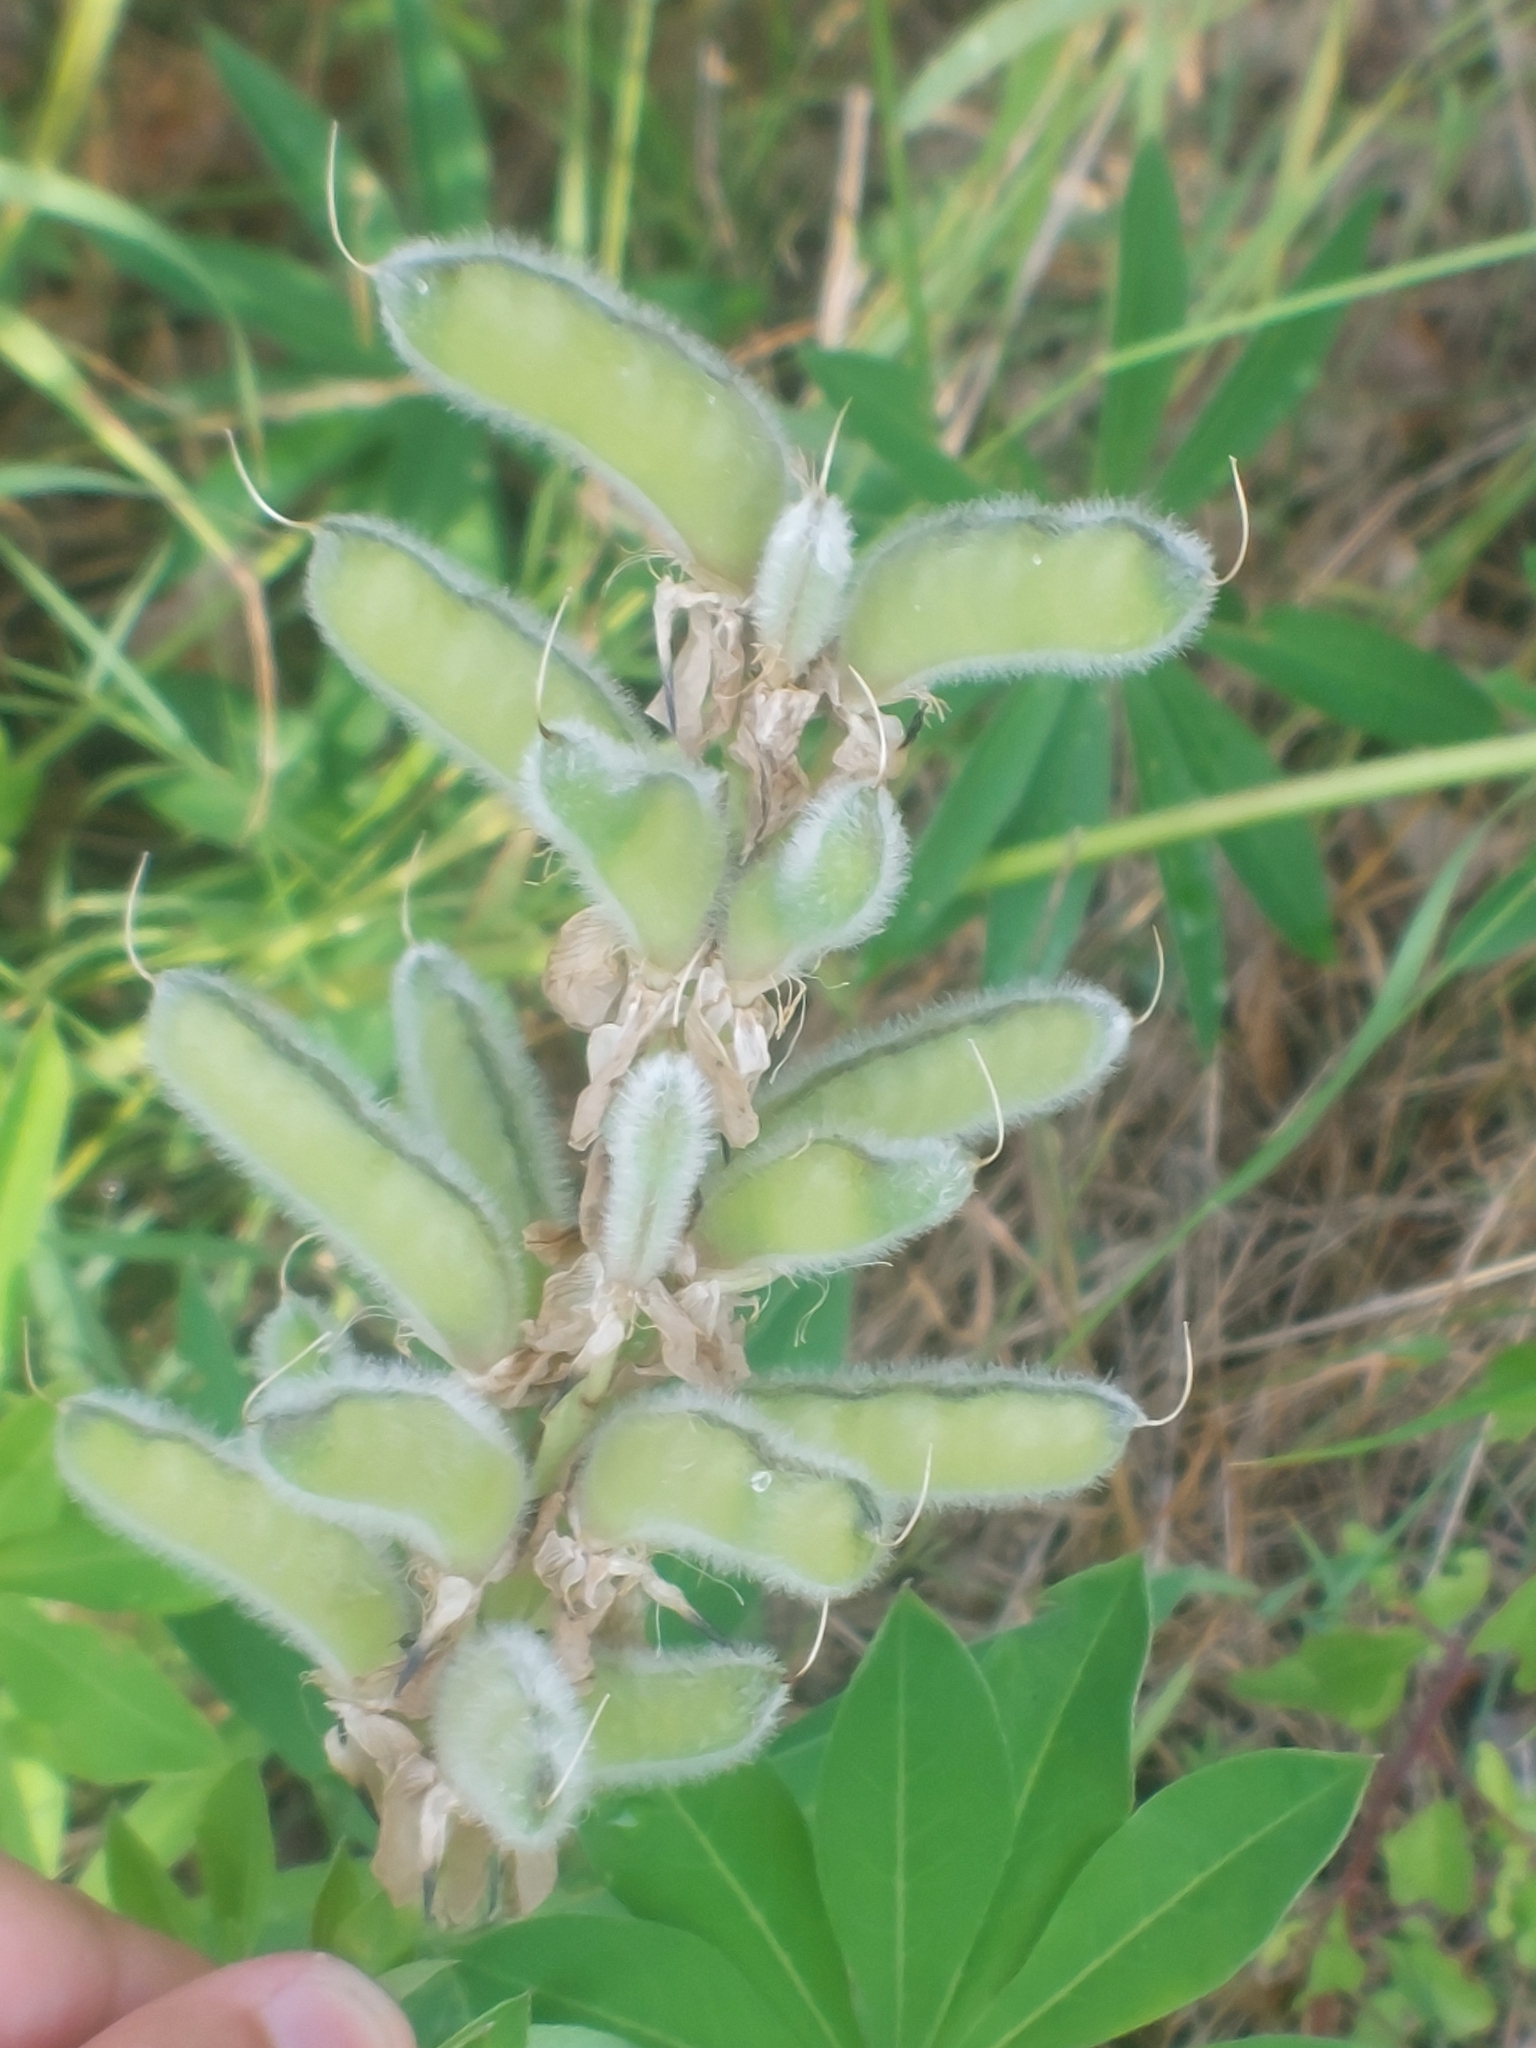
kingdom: Plantae
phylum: Tracheophyta
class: Magnoliopsida
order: Fabales
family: Fabaceae
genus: Lupinus
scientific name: Lupinus polyphyllus
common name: Garden lupin
